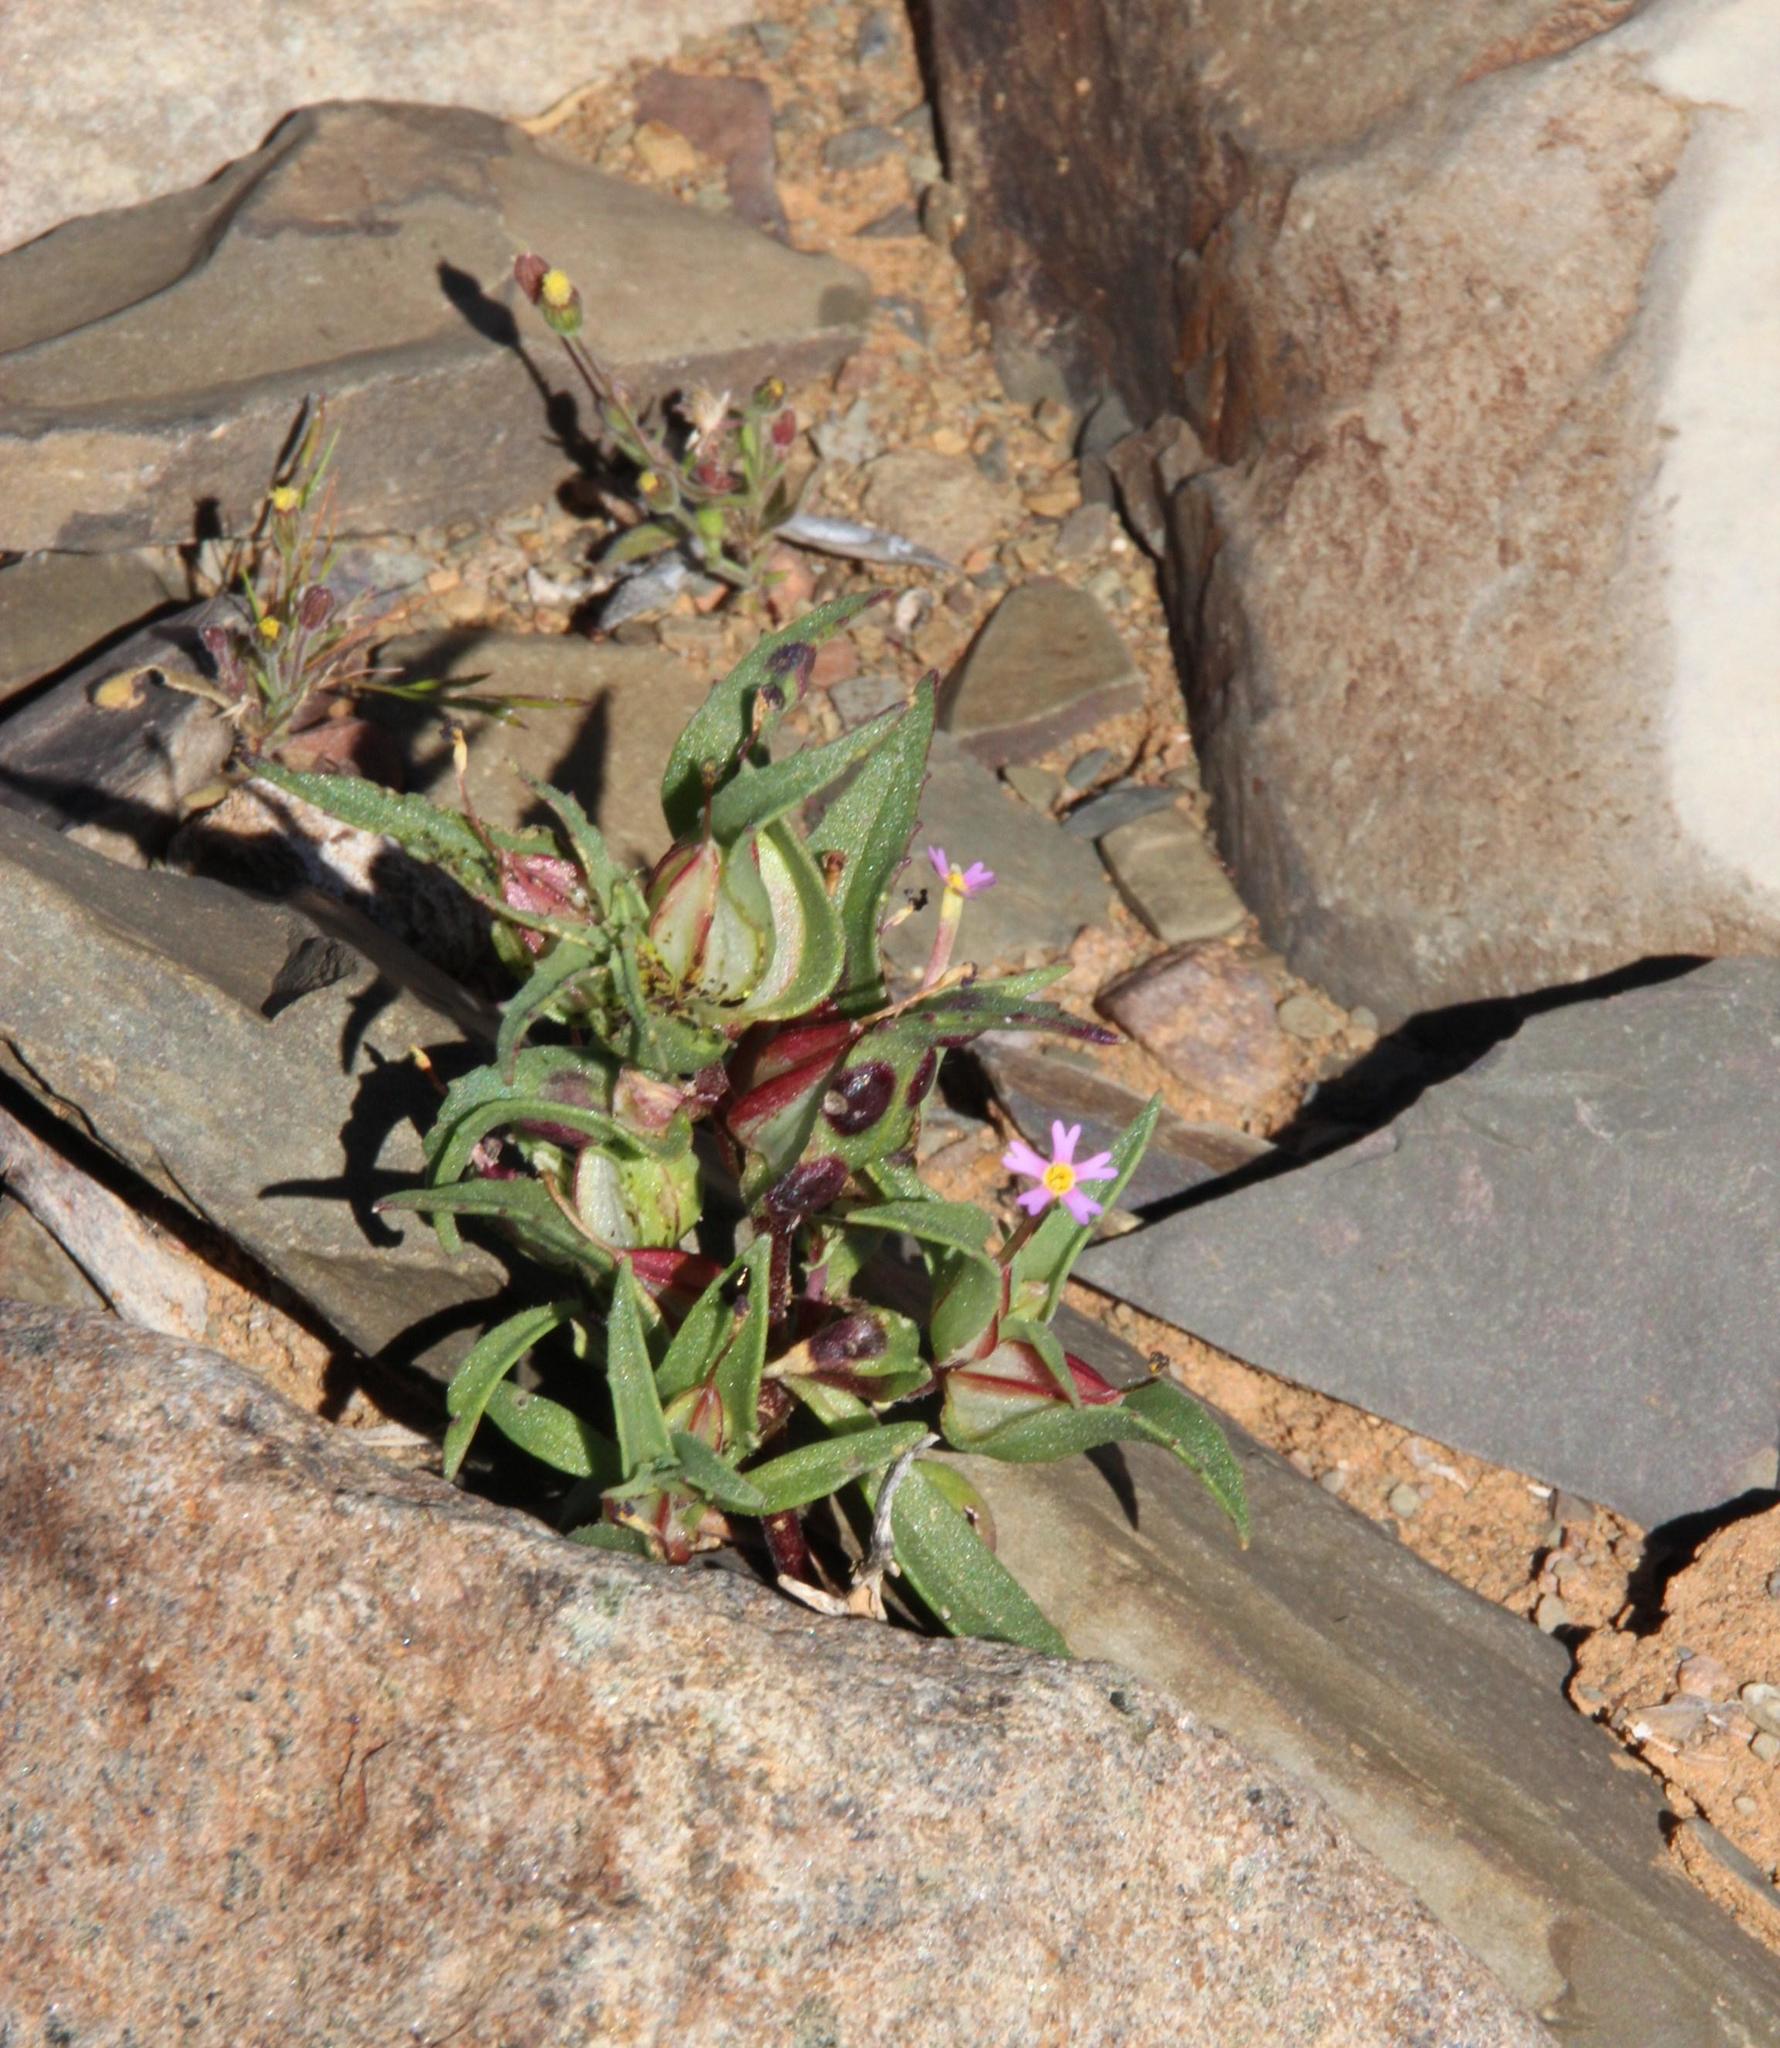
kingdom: Plantae
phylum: Tracheophyta
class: Magnoliopsida
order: Lamiales
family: Scrophulariaceae
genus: Zaluzianskya
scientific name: Zaluzianskya mirabilis
